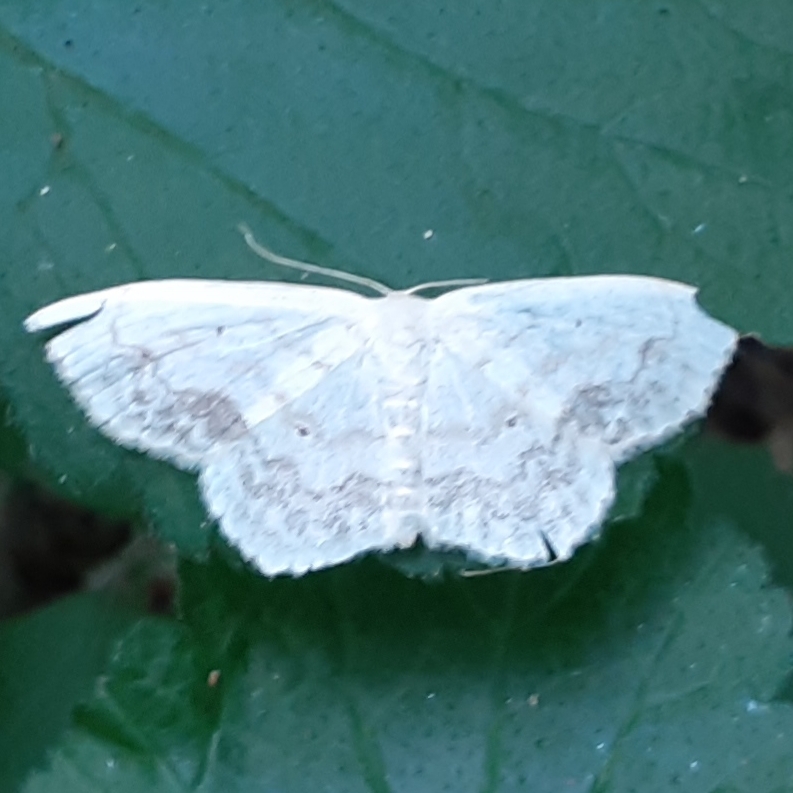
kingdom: Animalia
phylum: Arthropoda
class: Insecta
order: Lepidoptera
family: Geometridae
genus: Scopula
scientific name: Scopula limboundata
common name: Large lace border
